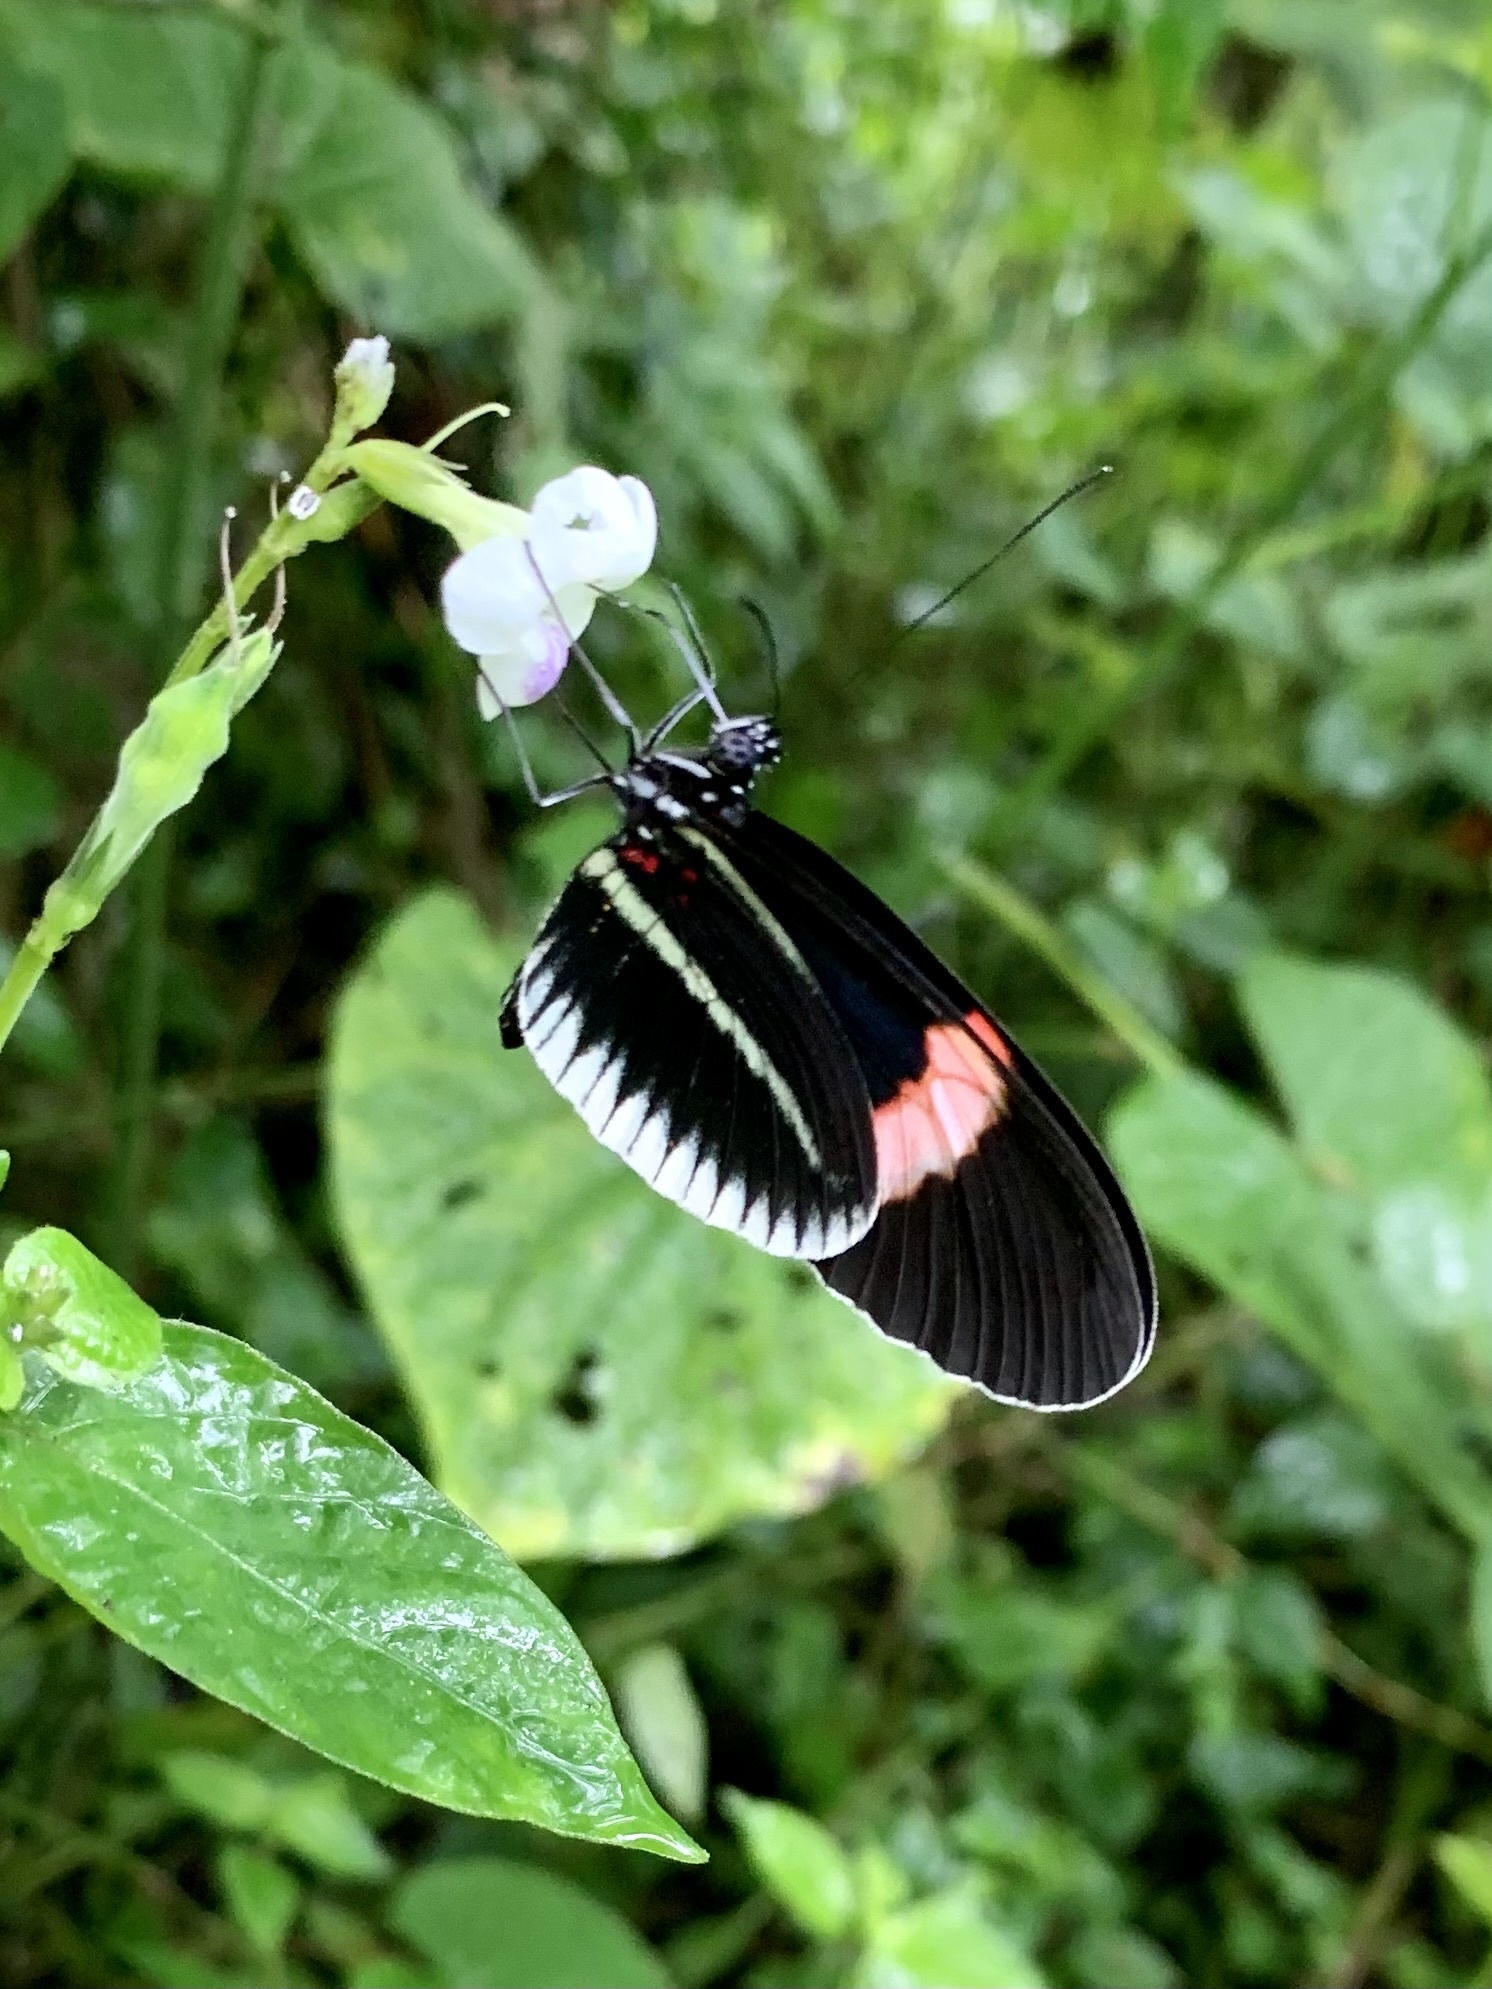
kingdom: Animalia
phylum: Arthropoda
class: Insecta
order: Lepidoptera
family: Nymphalidae
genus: Heliconius
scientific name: Heliconius erato
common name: Common patch longwing
